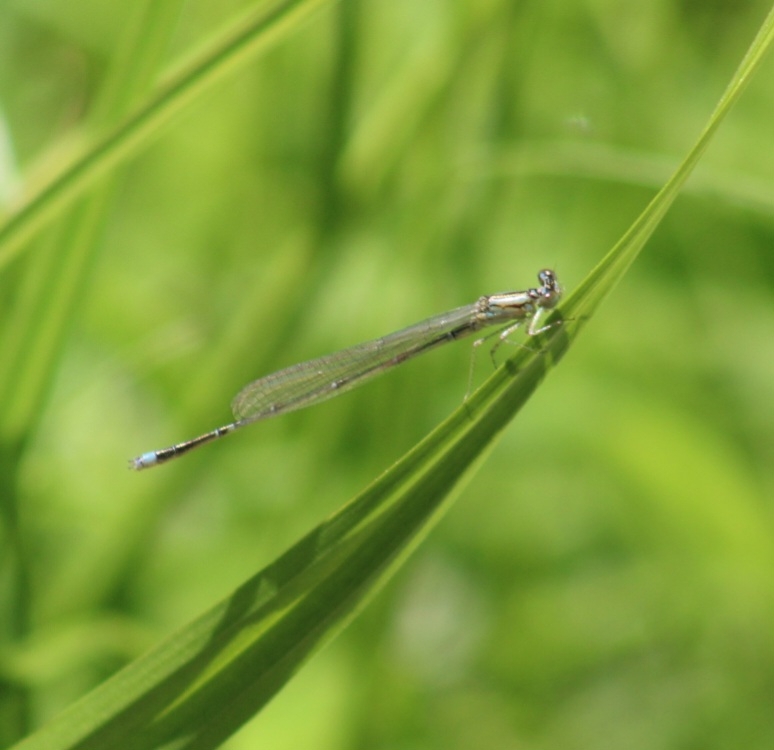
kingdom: Animalia
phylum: Arthropoda
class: Insecta
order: Odonata
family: Coenagrionidae
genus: Enallagma
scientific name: Enallagma vesperum
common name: Vesper bluet
